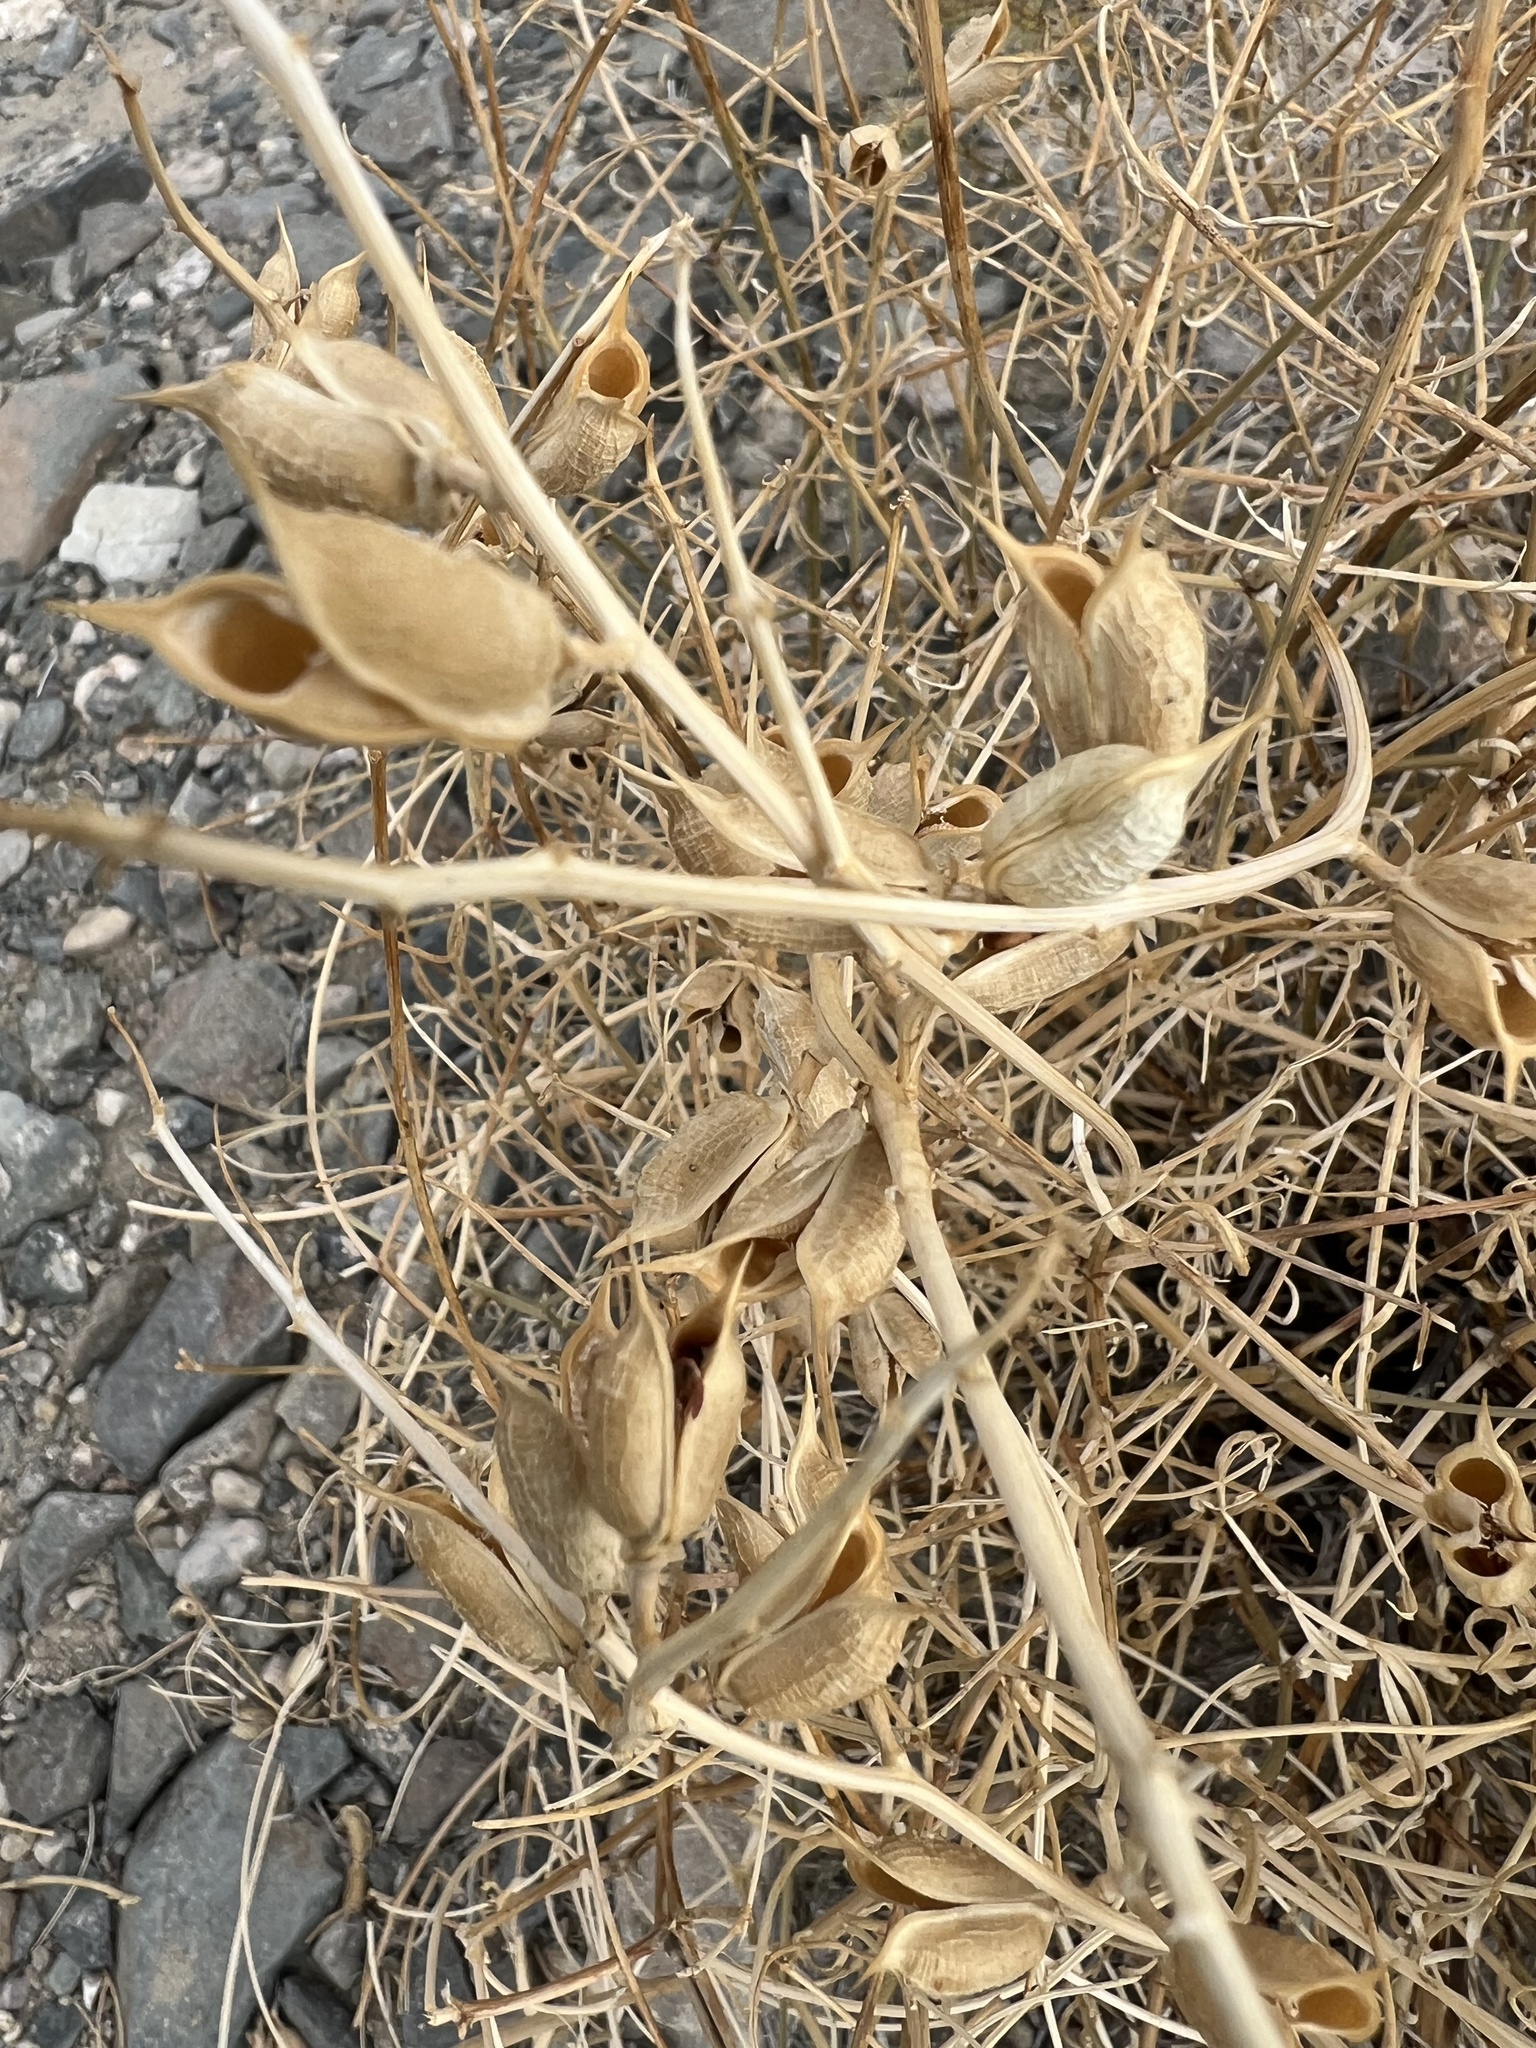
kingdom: Plantae
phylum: Tracheophyta
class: Magnoliopsida
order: Fabales
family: Fabaceae
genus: Astragalus
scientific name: Astragalus serenoi
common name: Naked milk-vetch
